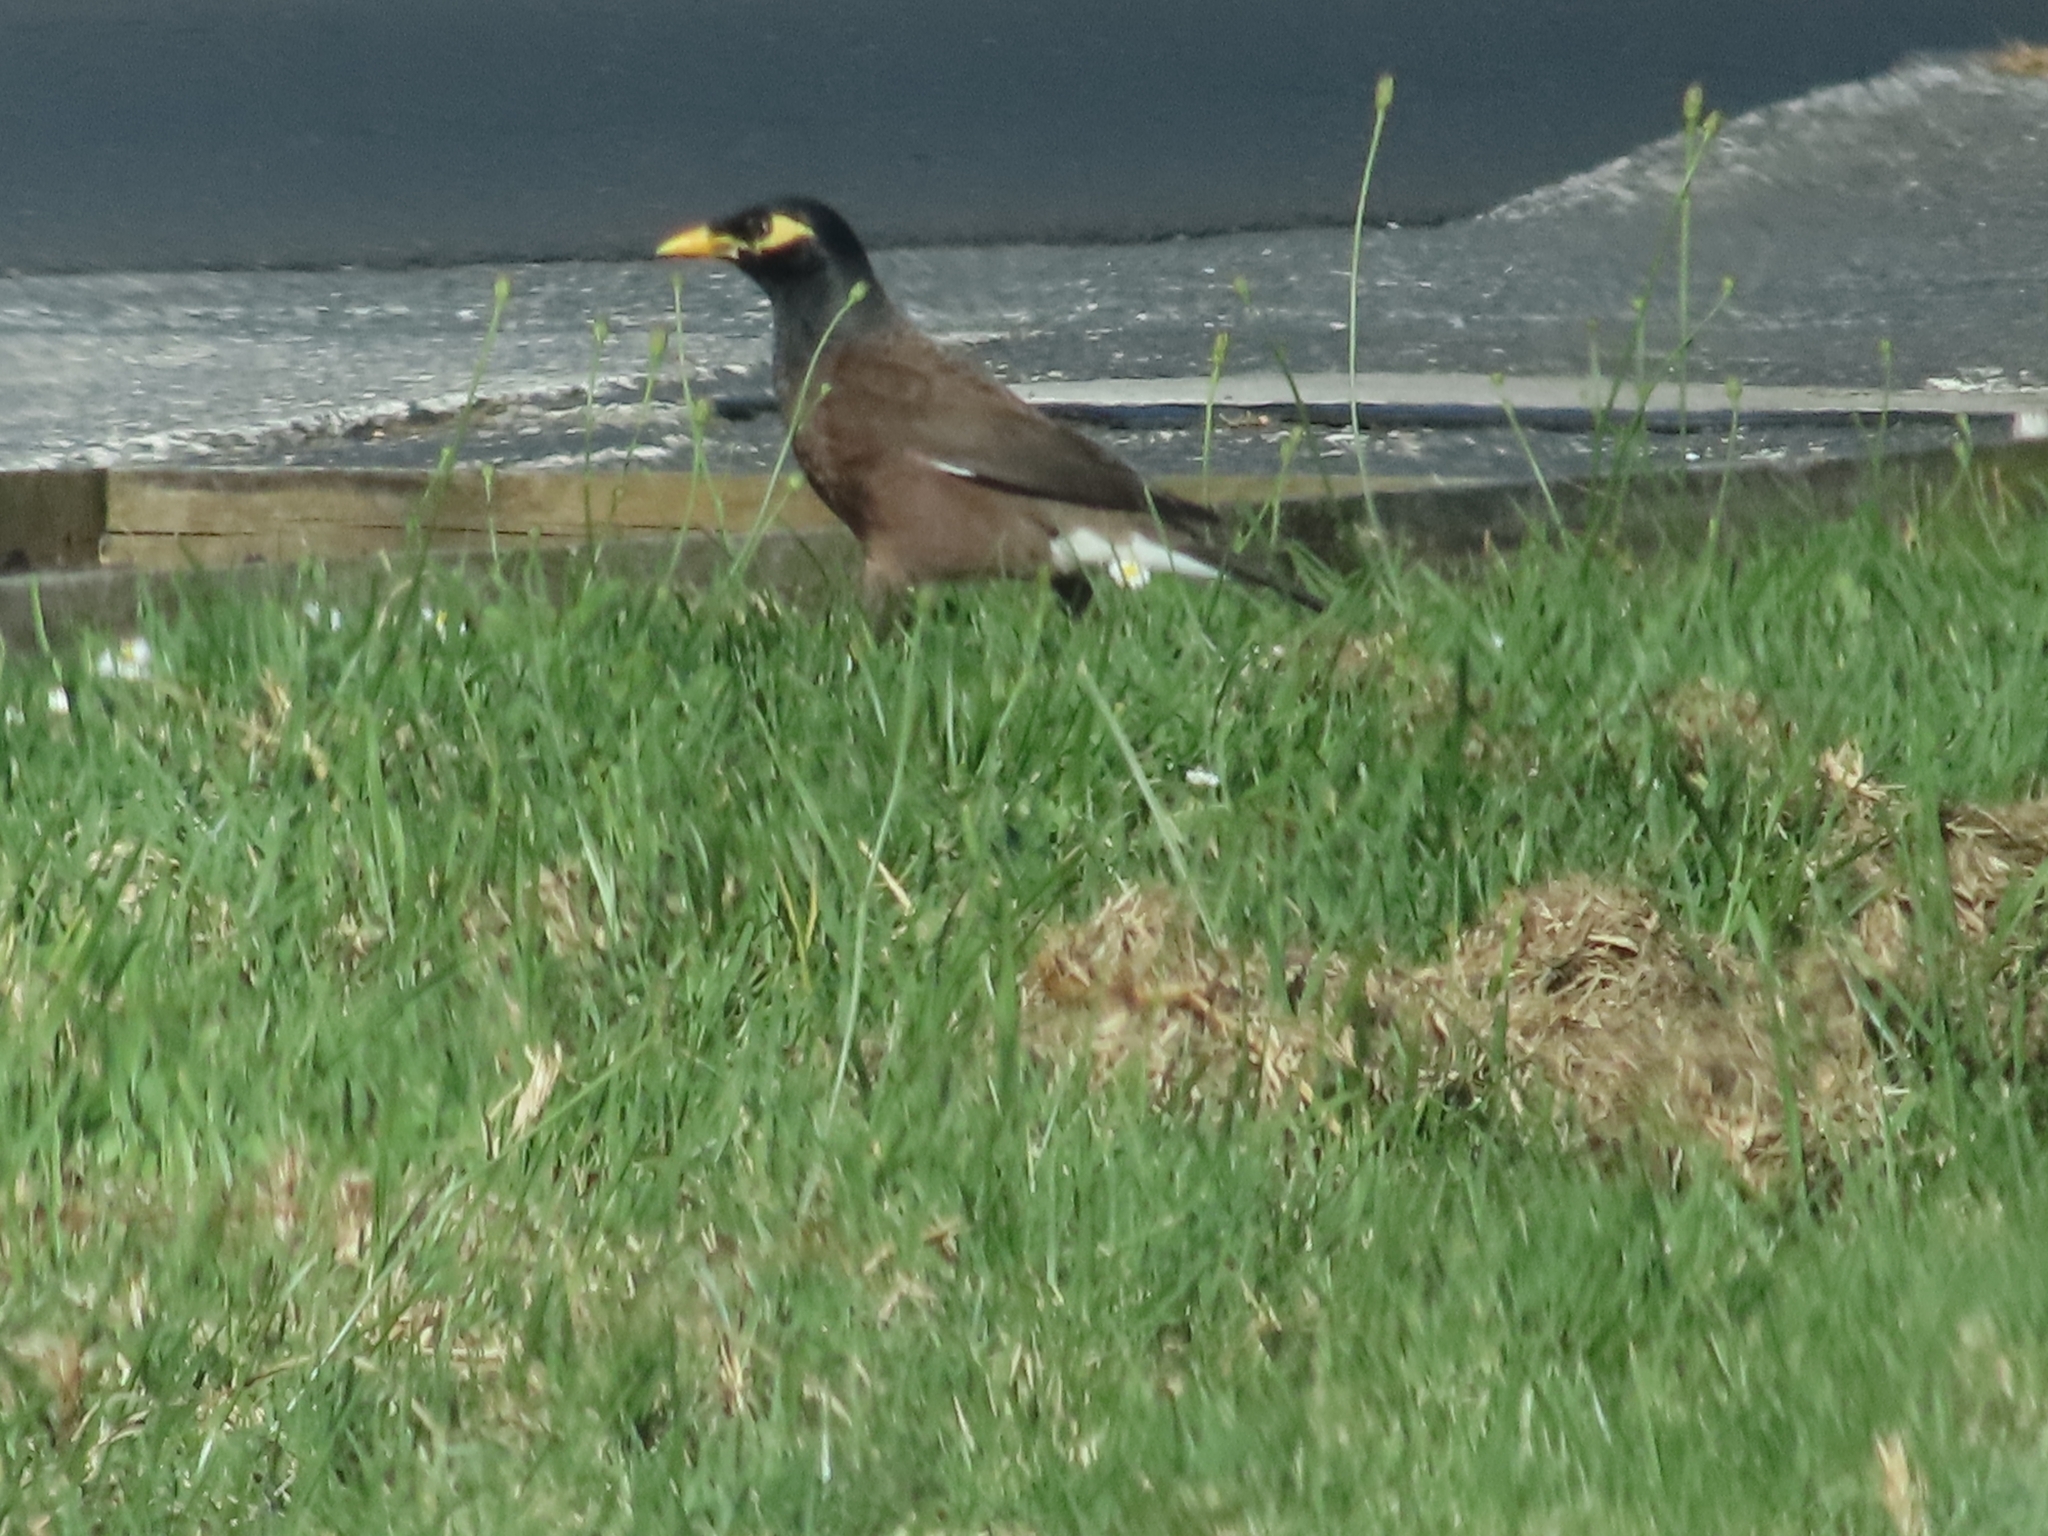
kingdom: Animalia
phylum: Chordata
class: Aves
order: Passeriformes
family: Sturnidae
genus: Acridotheres
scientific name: Acridotheres tristis
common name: Common myna
